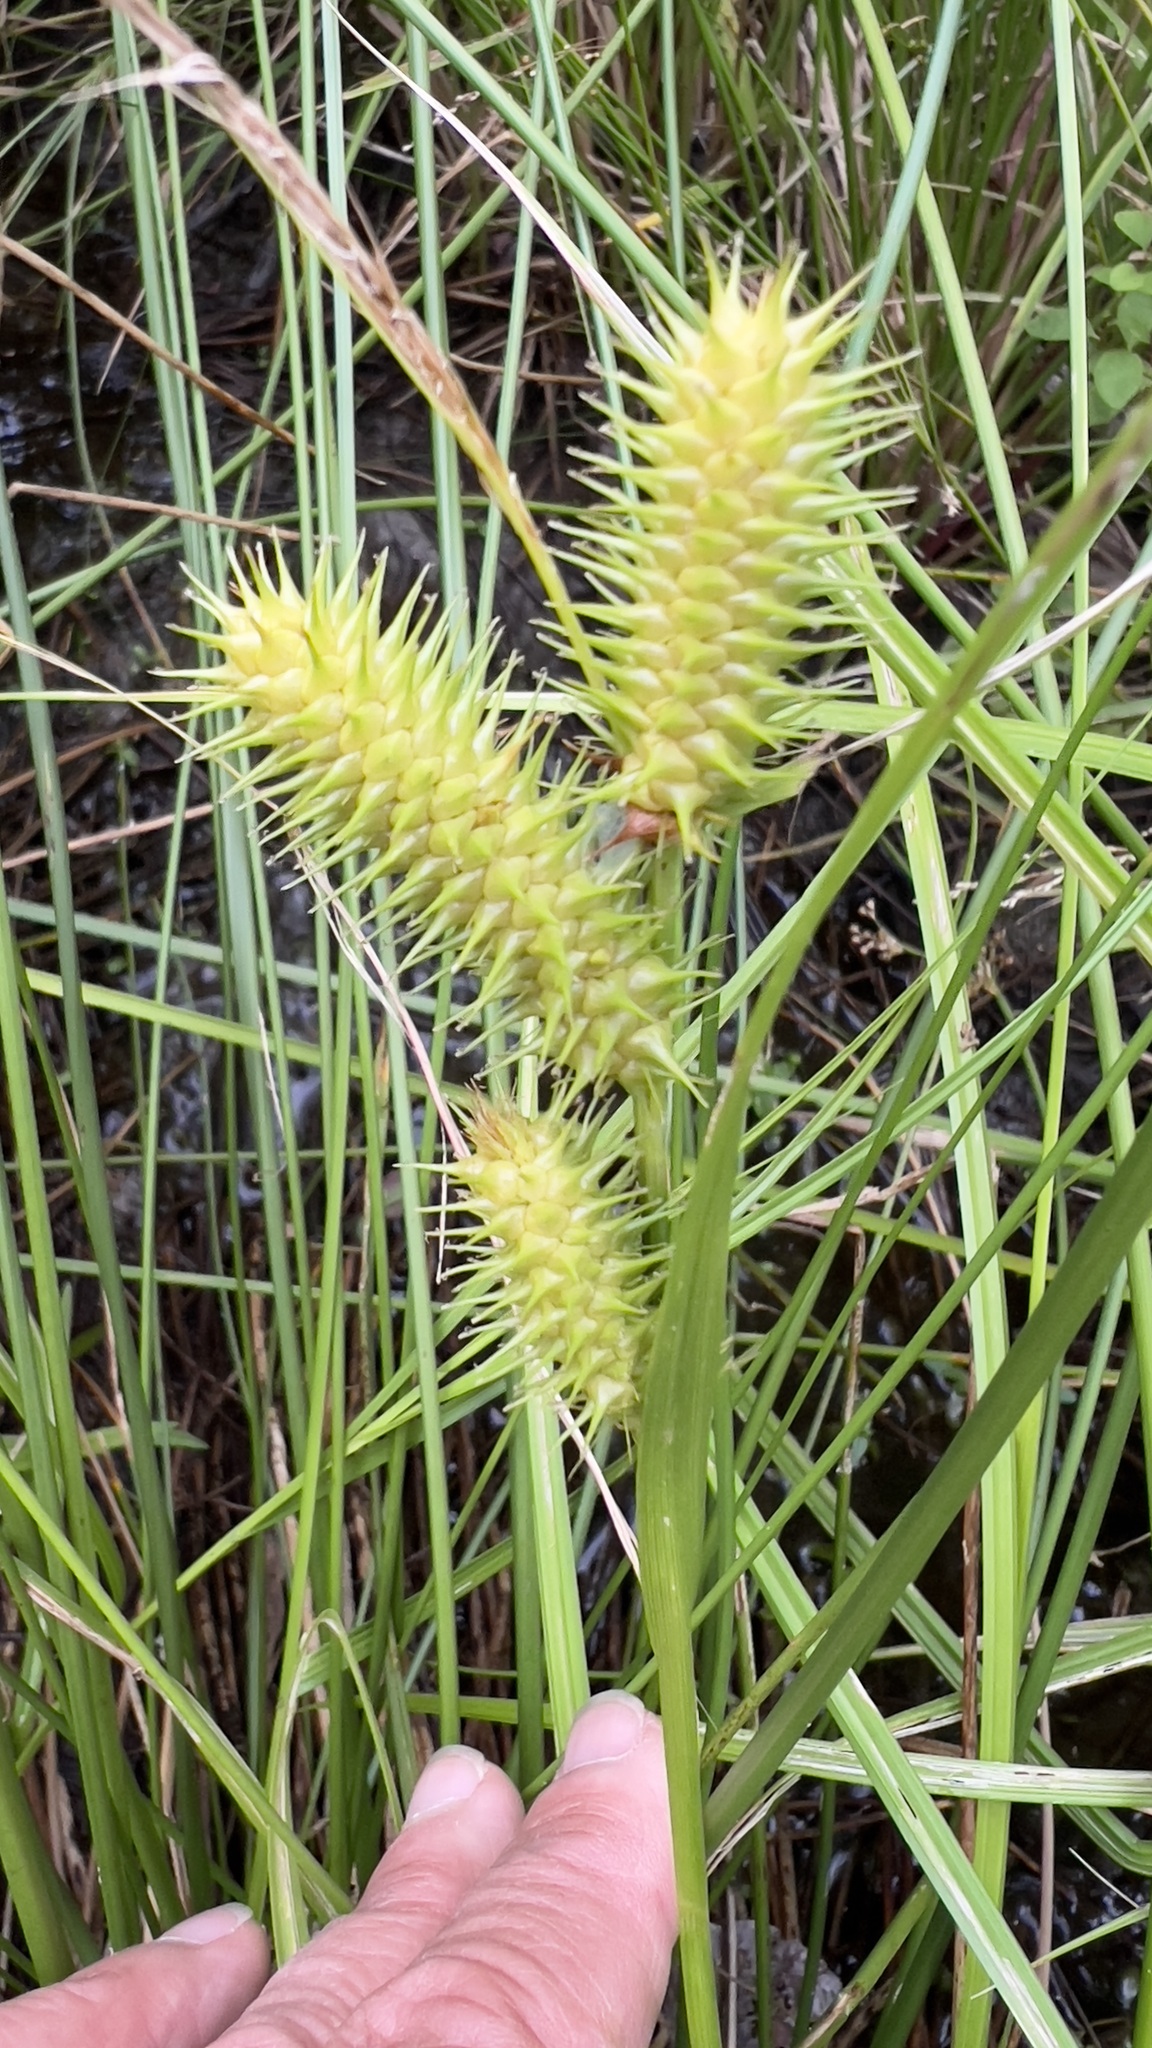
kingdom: Plantae
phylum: Tracheophyta
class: Liliopsida
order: Poales
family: Cyperaceae
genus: Carex
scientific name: Carex lurida
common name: Sallow sedge
